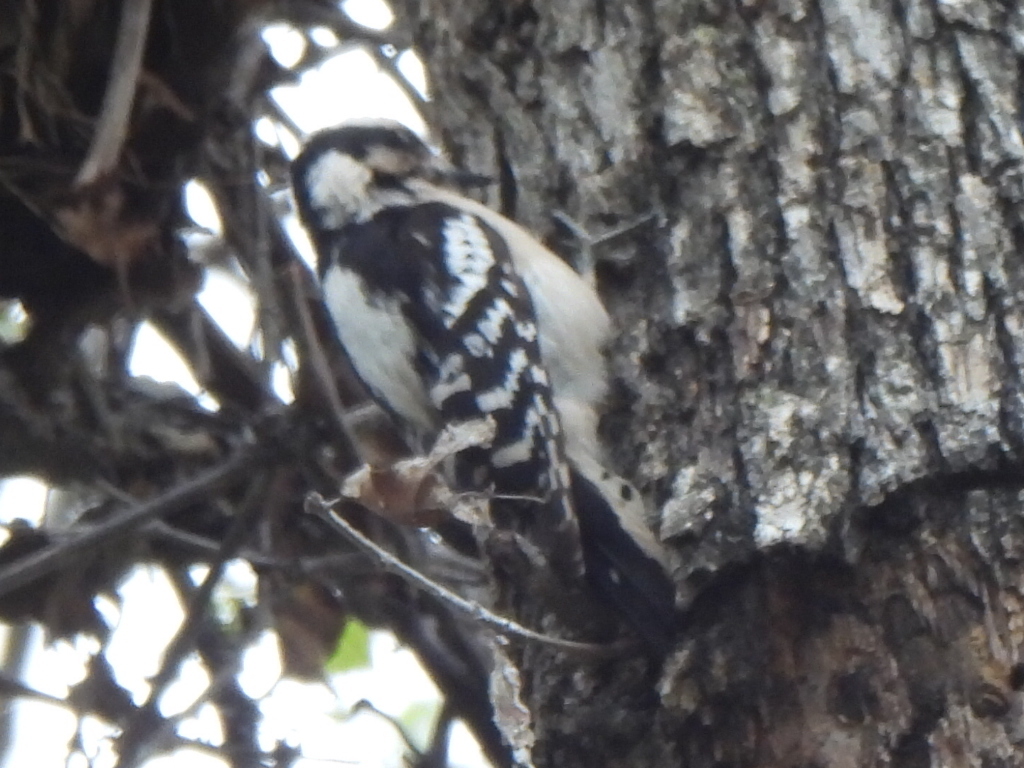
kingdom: Animalia
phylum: Chordata
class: Aves
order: Piciformes
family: Picidae
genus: Dryobates
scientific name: Dryobates pubescens
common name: Downy woodpecker
